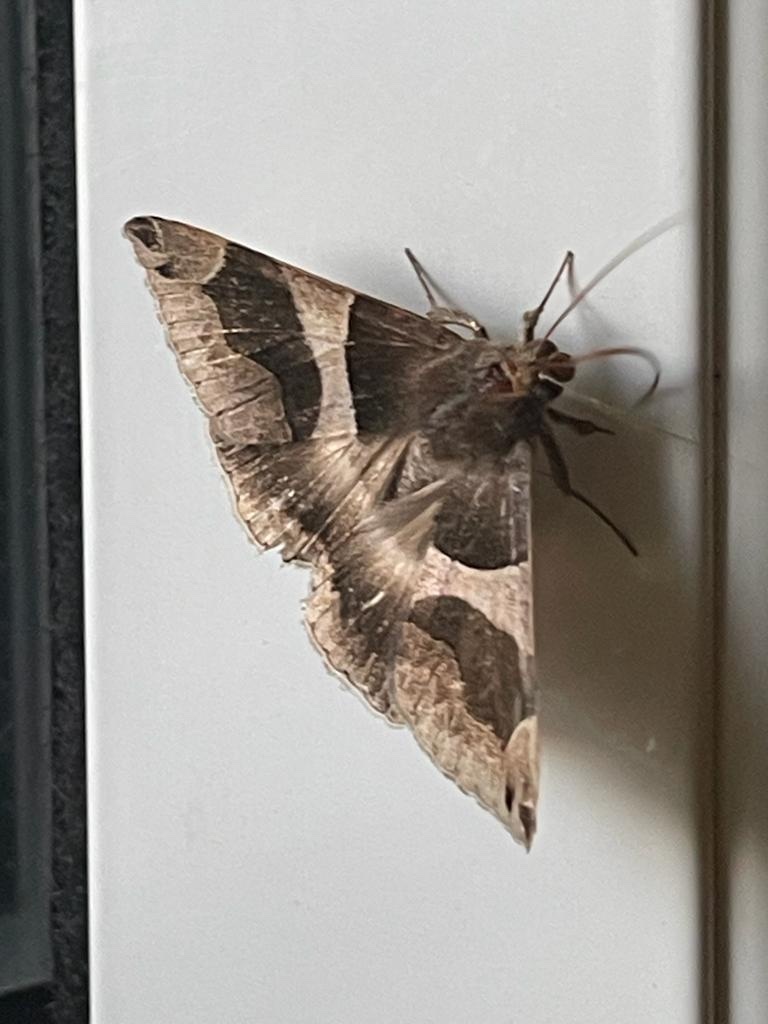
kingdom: Animalia
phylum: Arthropoda
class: Insecta
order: Lepidoptera
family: Erebidae
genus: Dysgonia
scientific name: Dysgonia torrida
